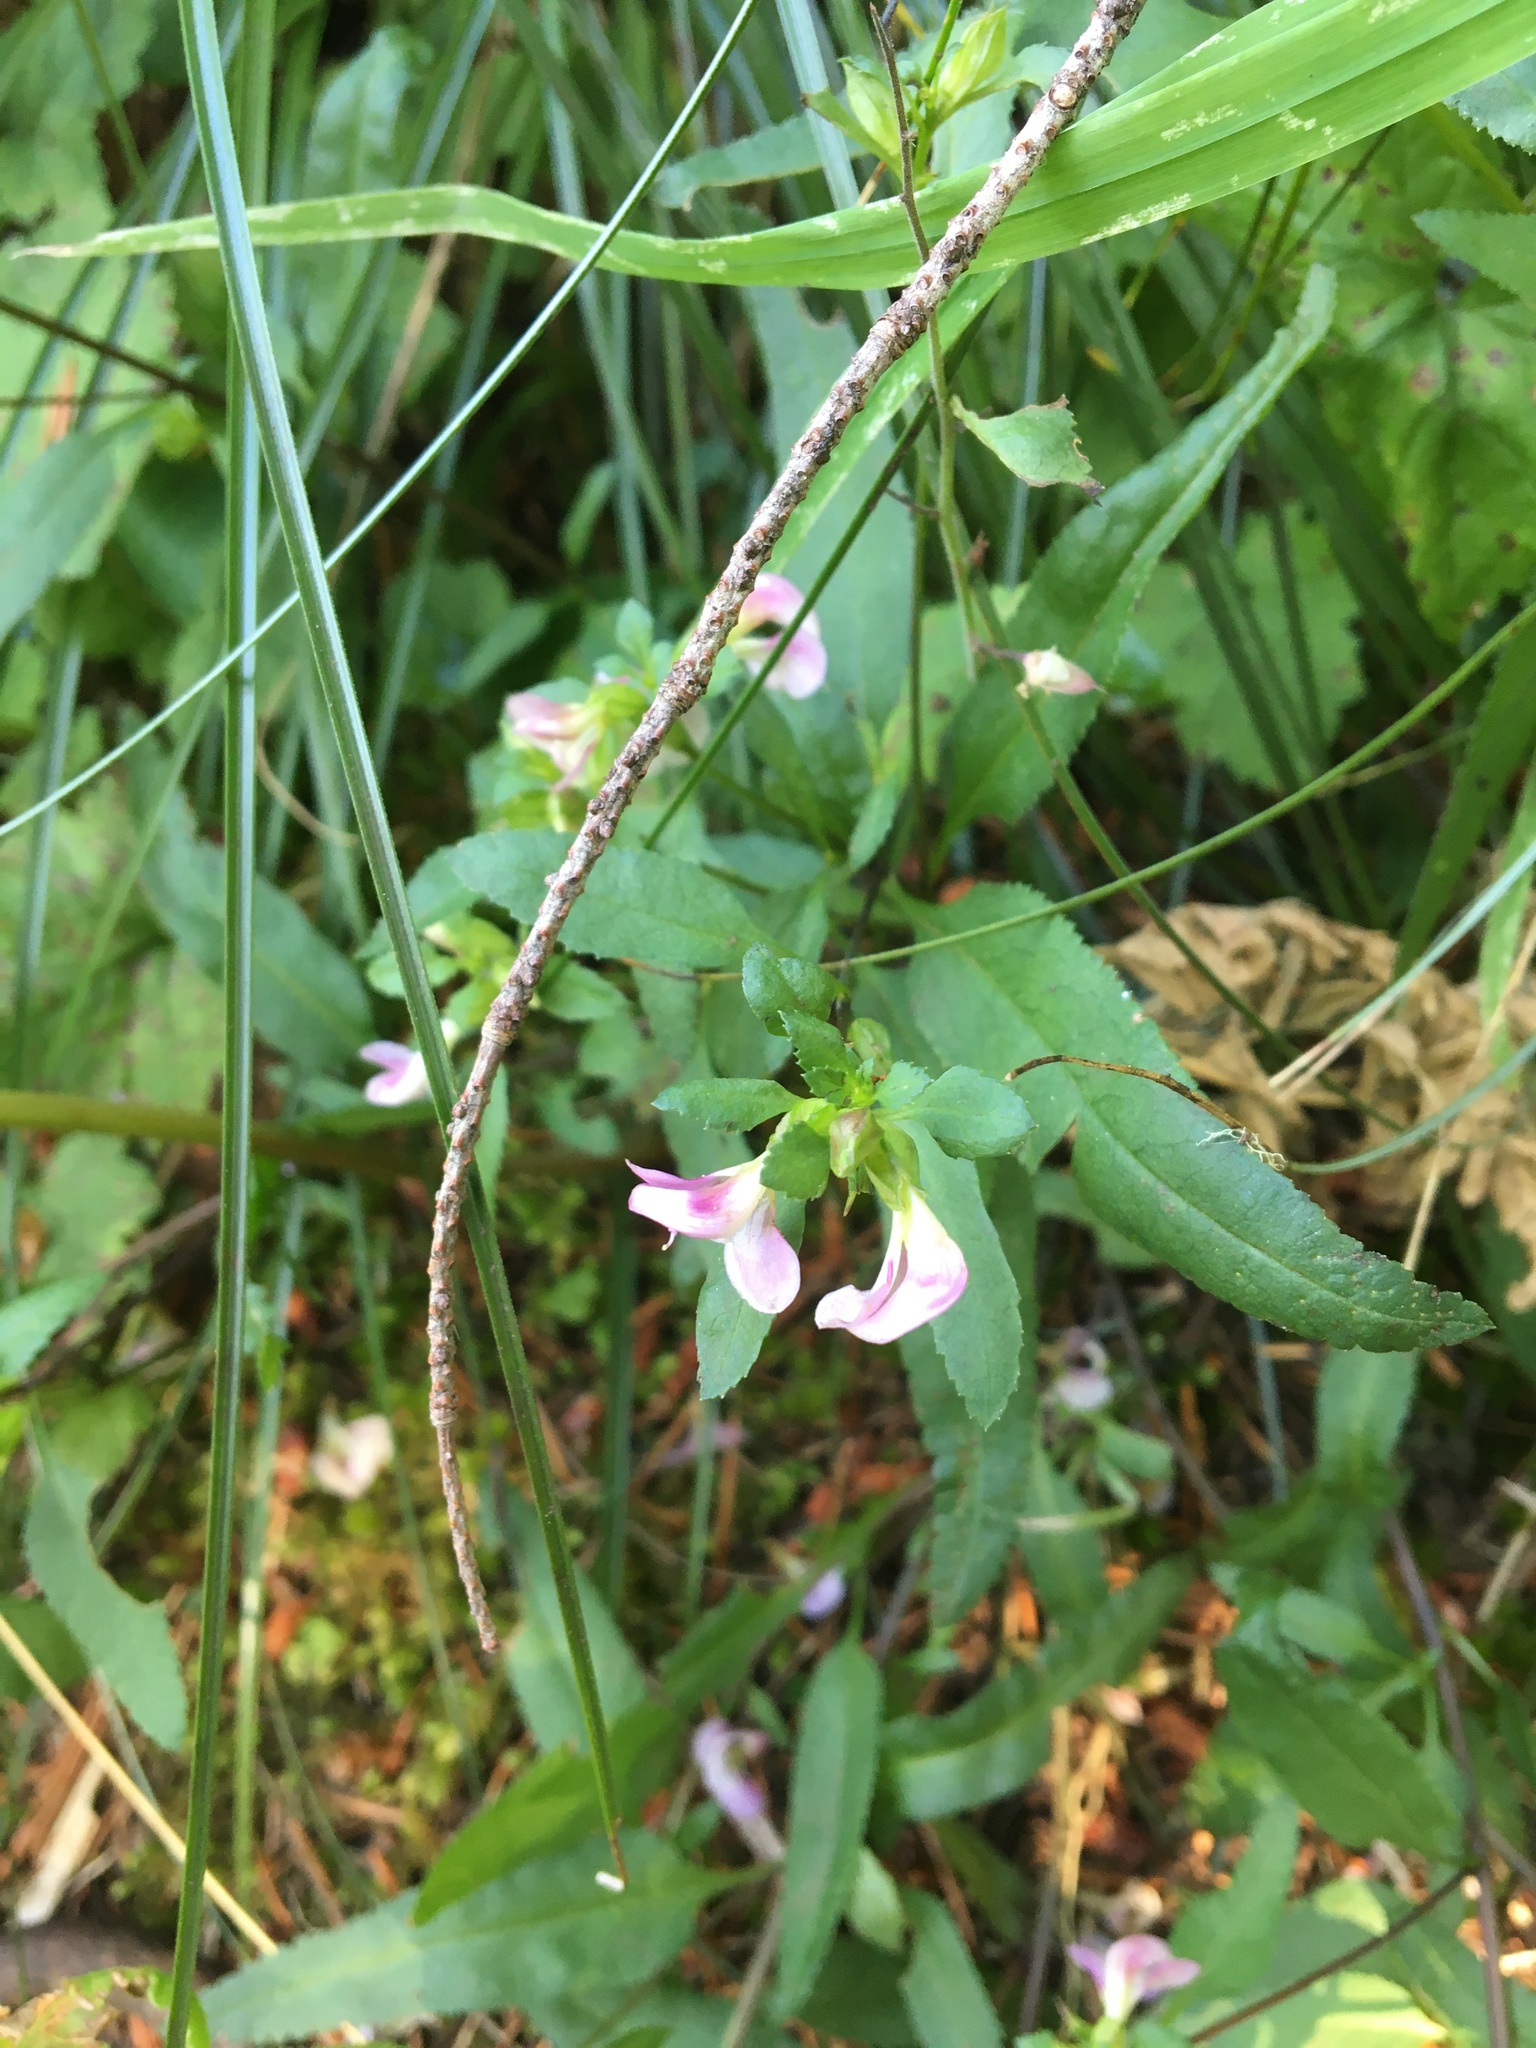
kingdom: Plantae
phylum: Tracheophyta
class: Magnoliopsida
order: Lamiales
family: Orobanchaceae
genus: Pedicularis
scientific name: Pedicularis racemosa
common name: Leafy lousewort
